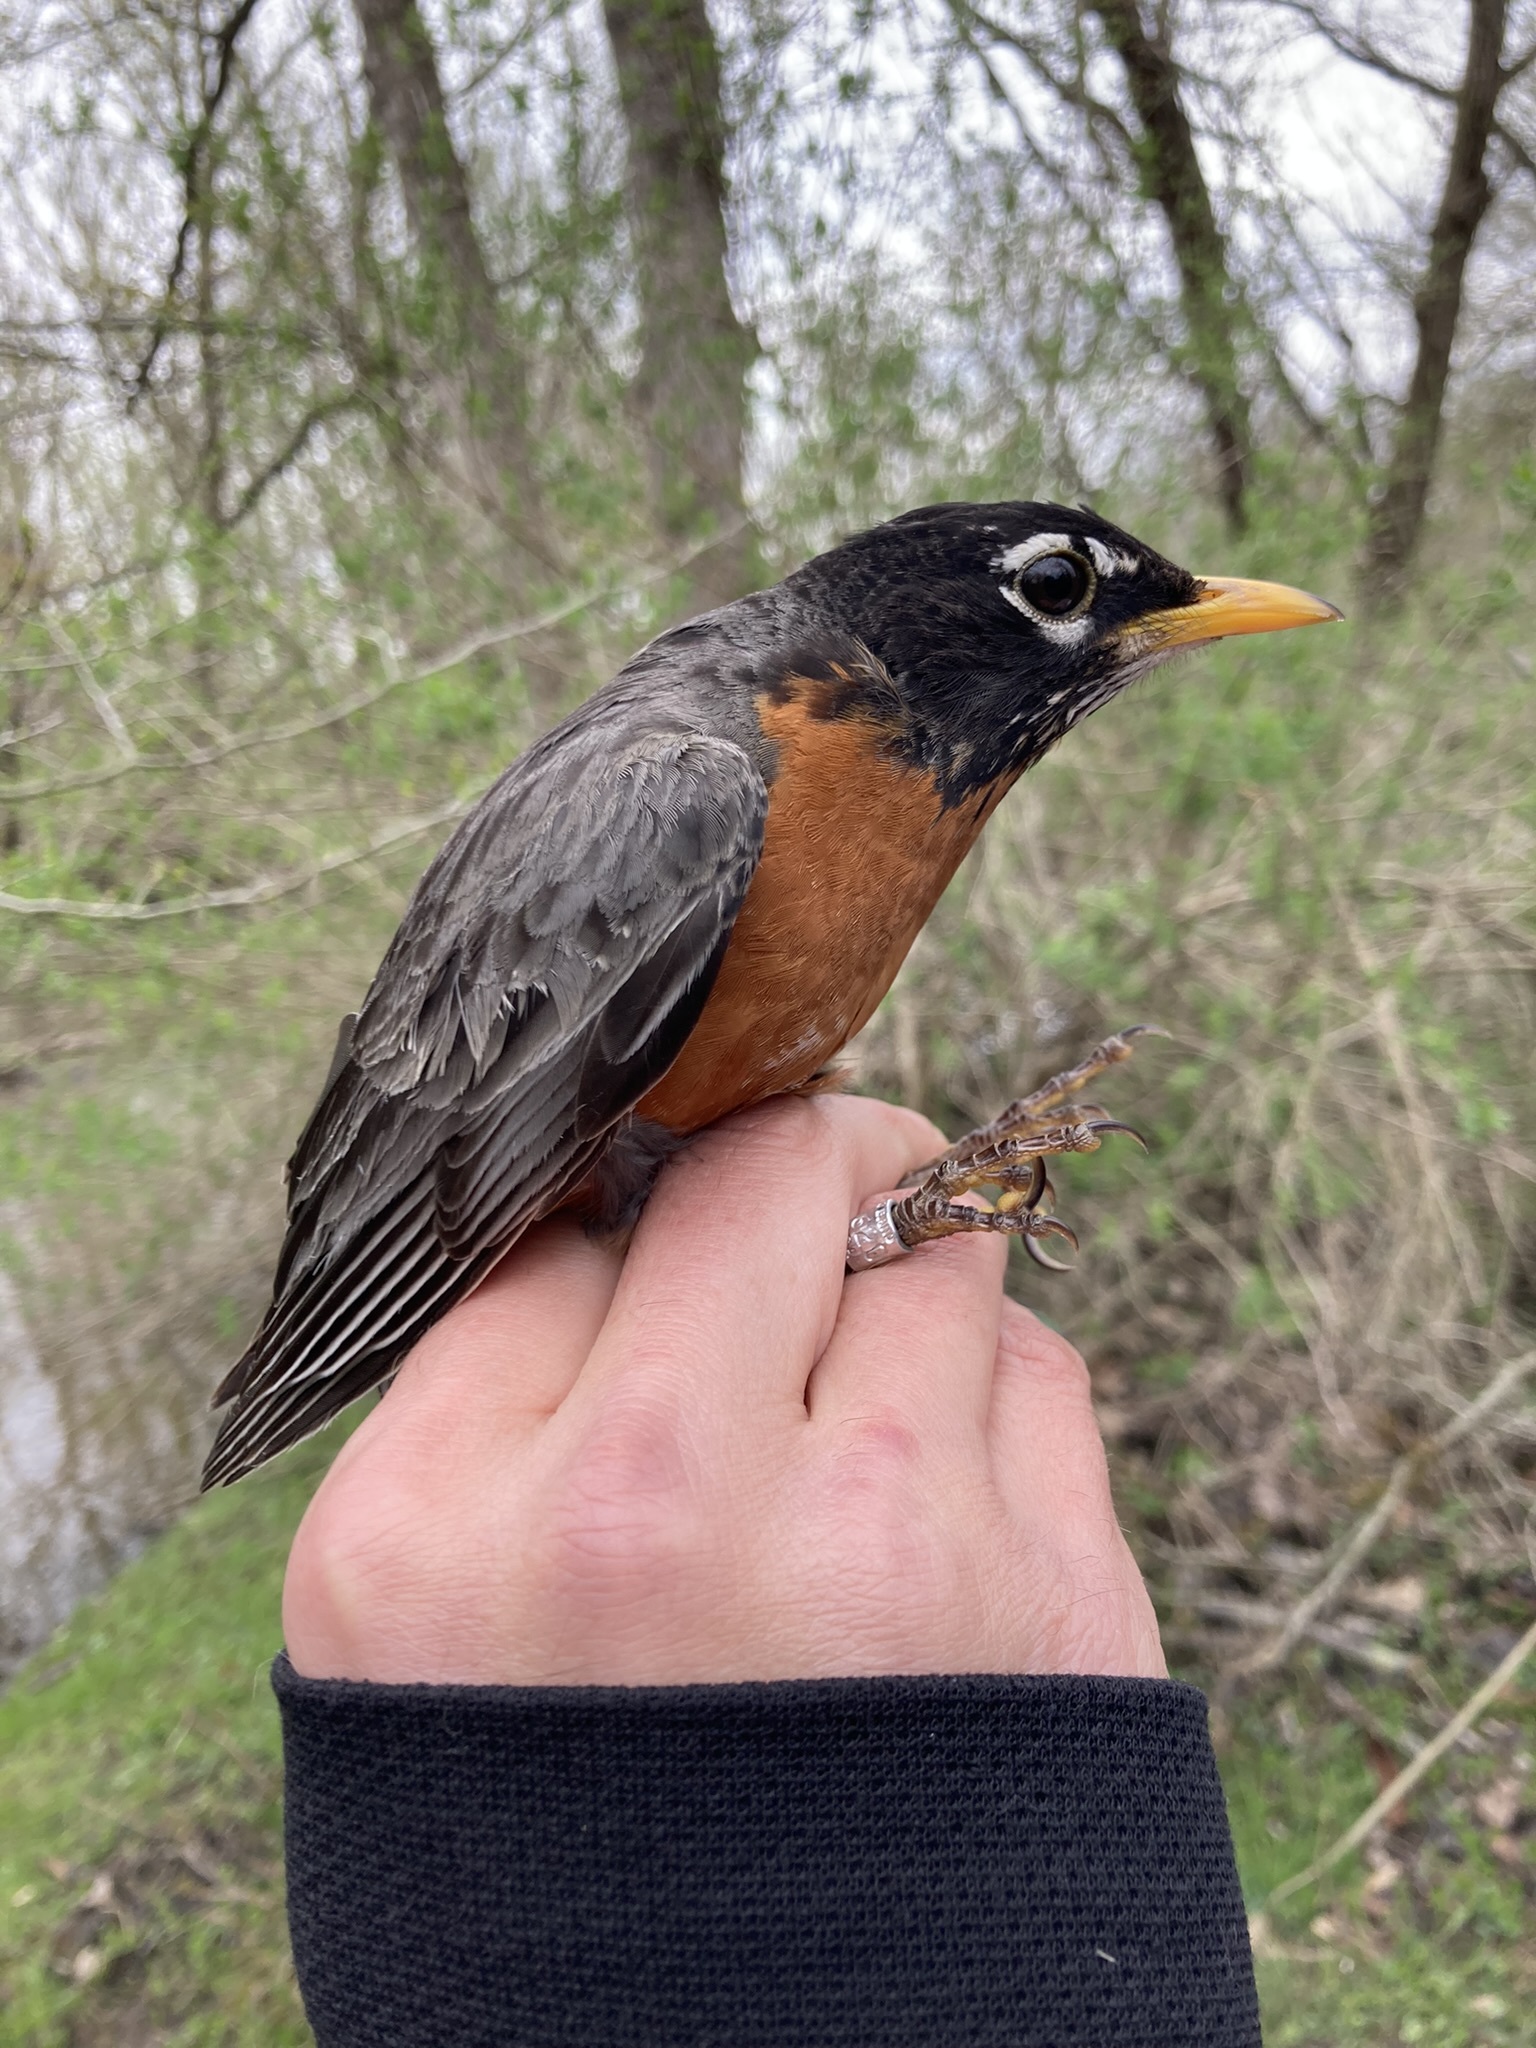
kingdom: Animalia
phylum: Chordata
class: Aves
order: Passeriformes
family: Turdidae
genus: Turdus
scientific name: Turdus migratorius
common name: American robin
